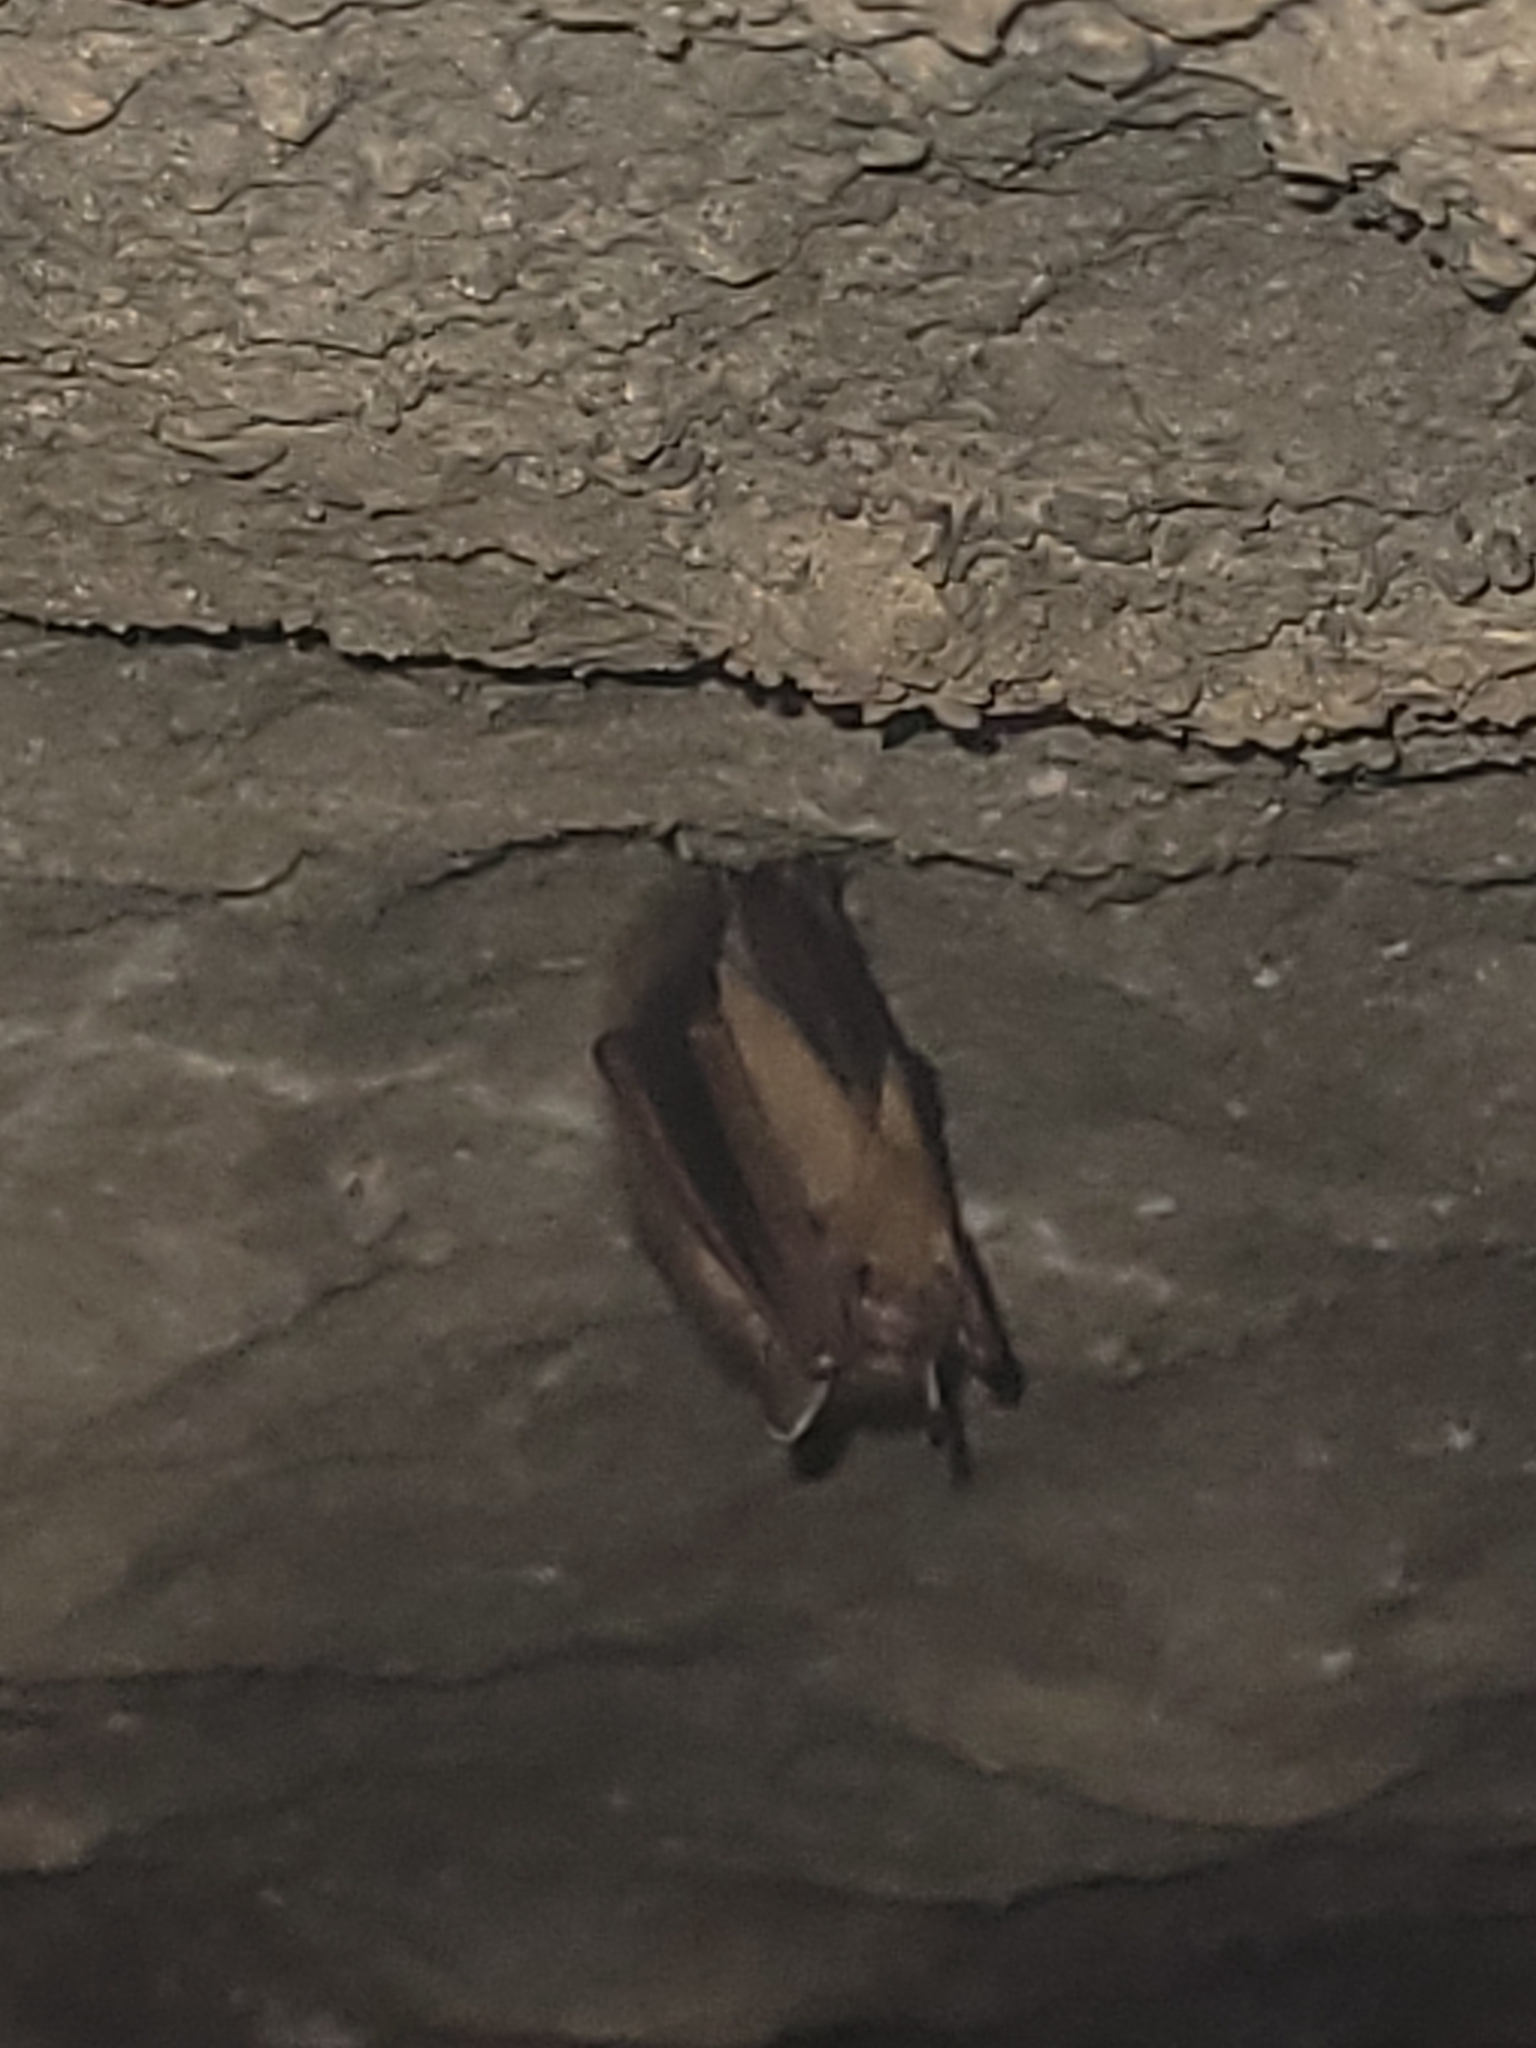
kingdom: Animalia
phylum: Chordata
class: Mammalia
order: Chiroptera
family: Vespertilionidae
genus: Perimyotis
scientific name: Perimyotis subflavus
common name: Eastern pipistrelle
